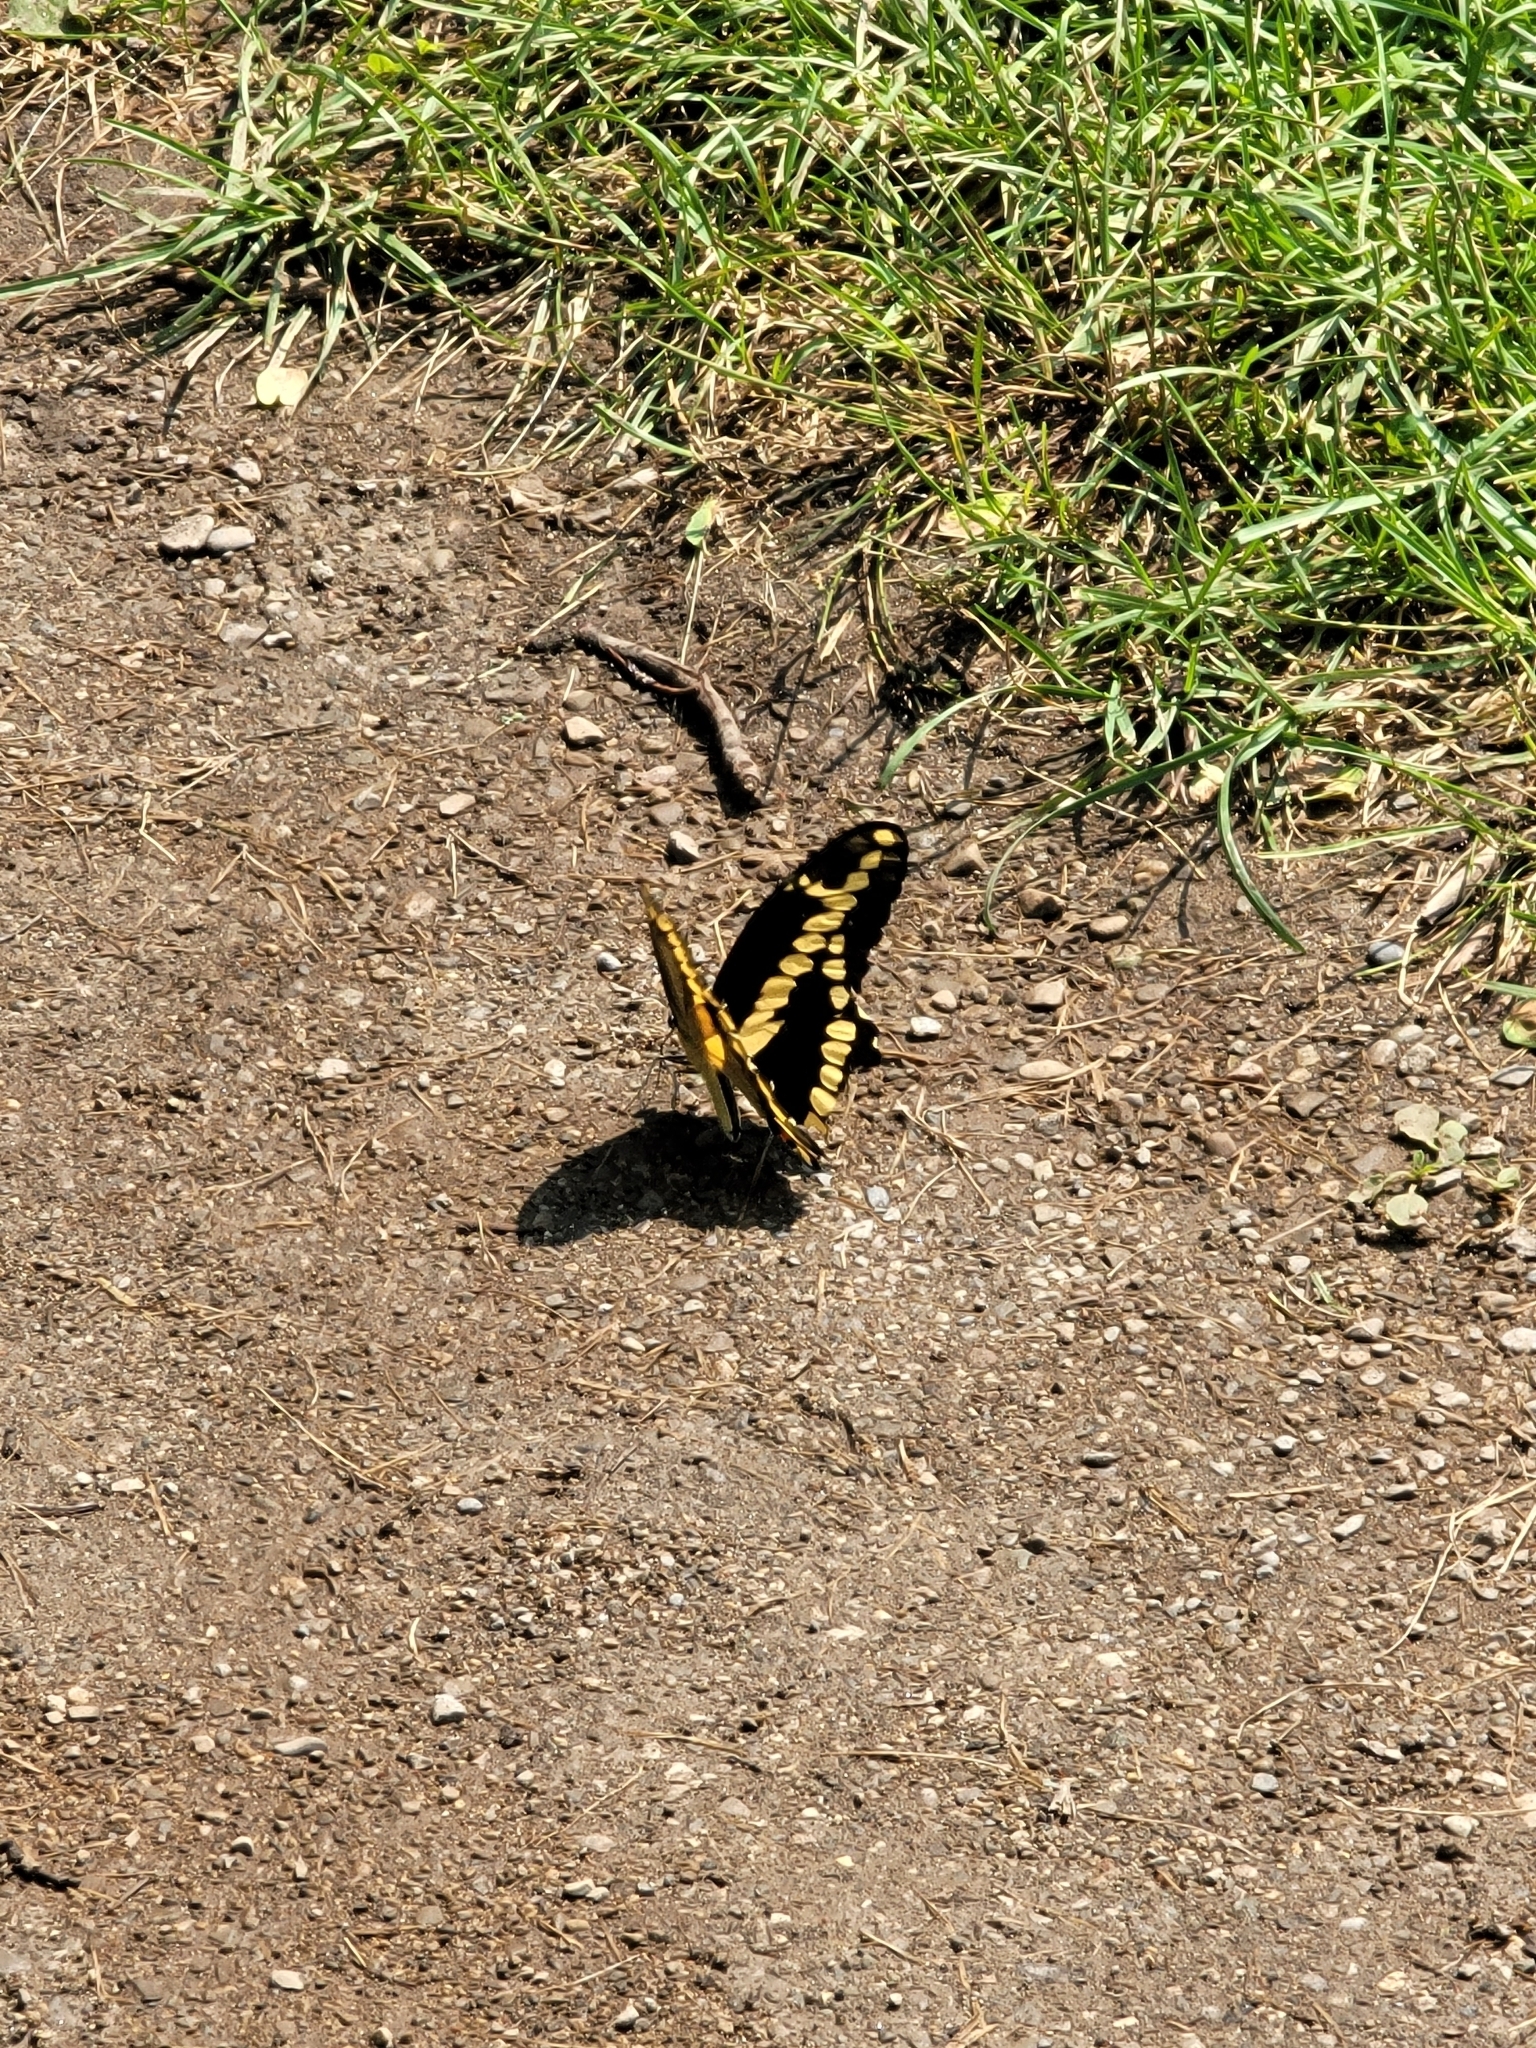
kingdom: Animalia
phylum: Arthropoda
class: Insecta
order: Lepidoptera
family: Papilionidae
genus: Papilio
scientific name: Papilio cresphontes
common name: Giant swallowtail
